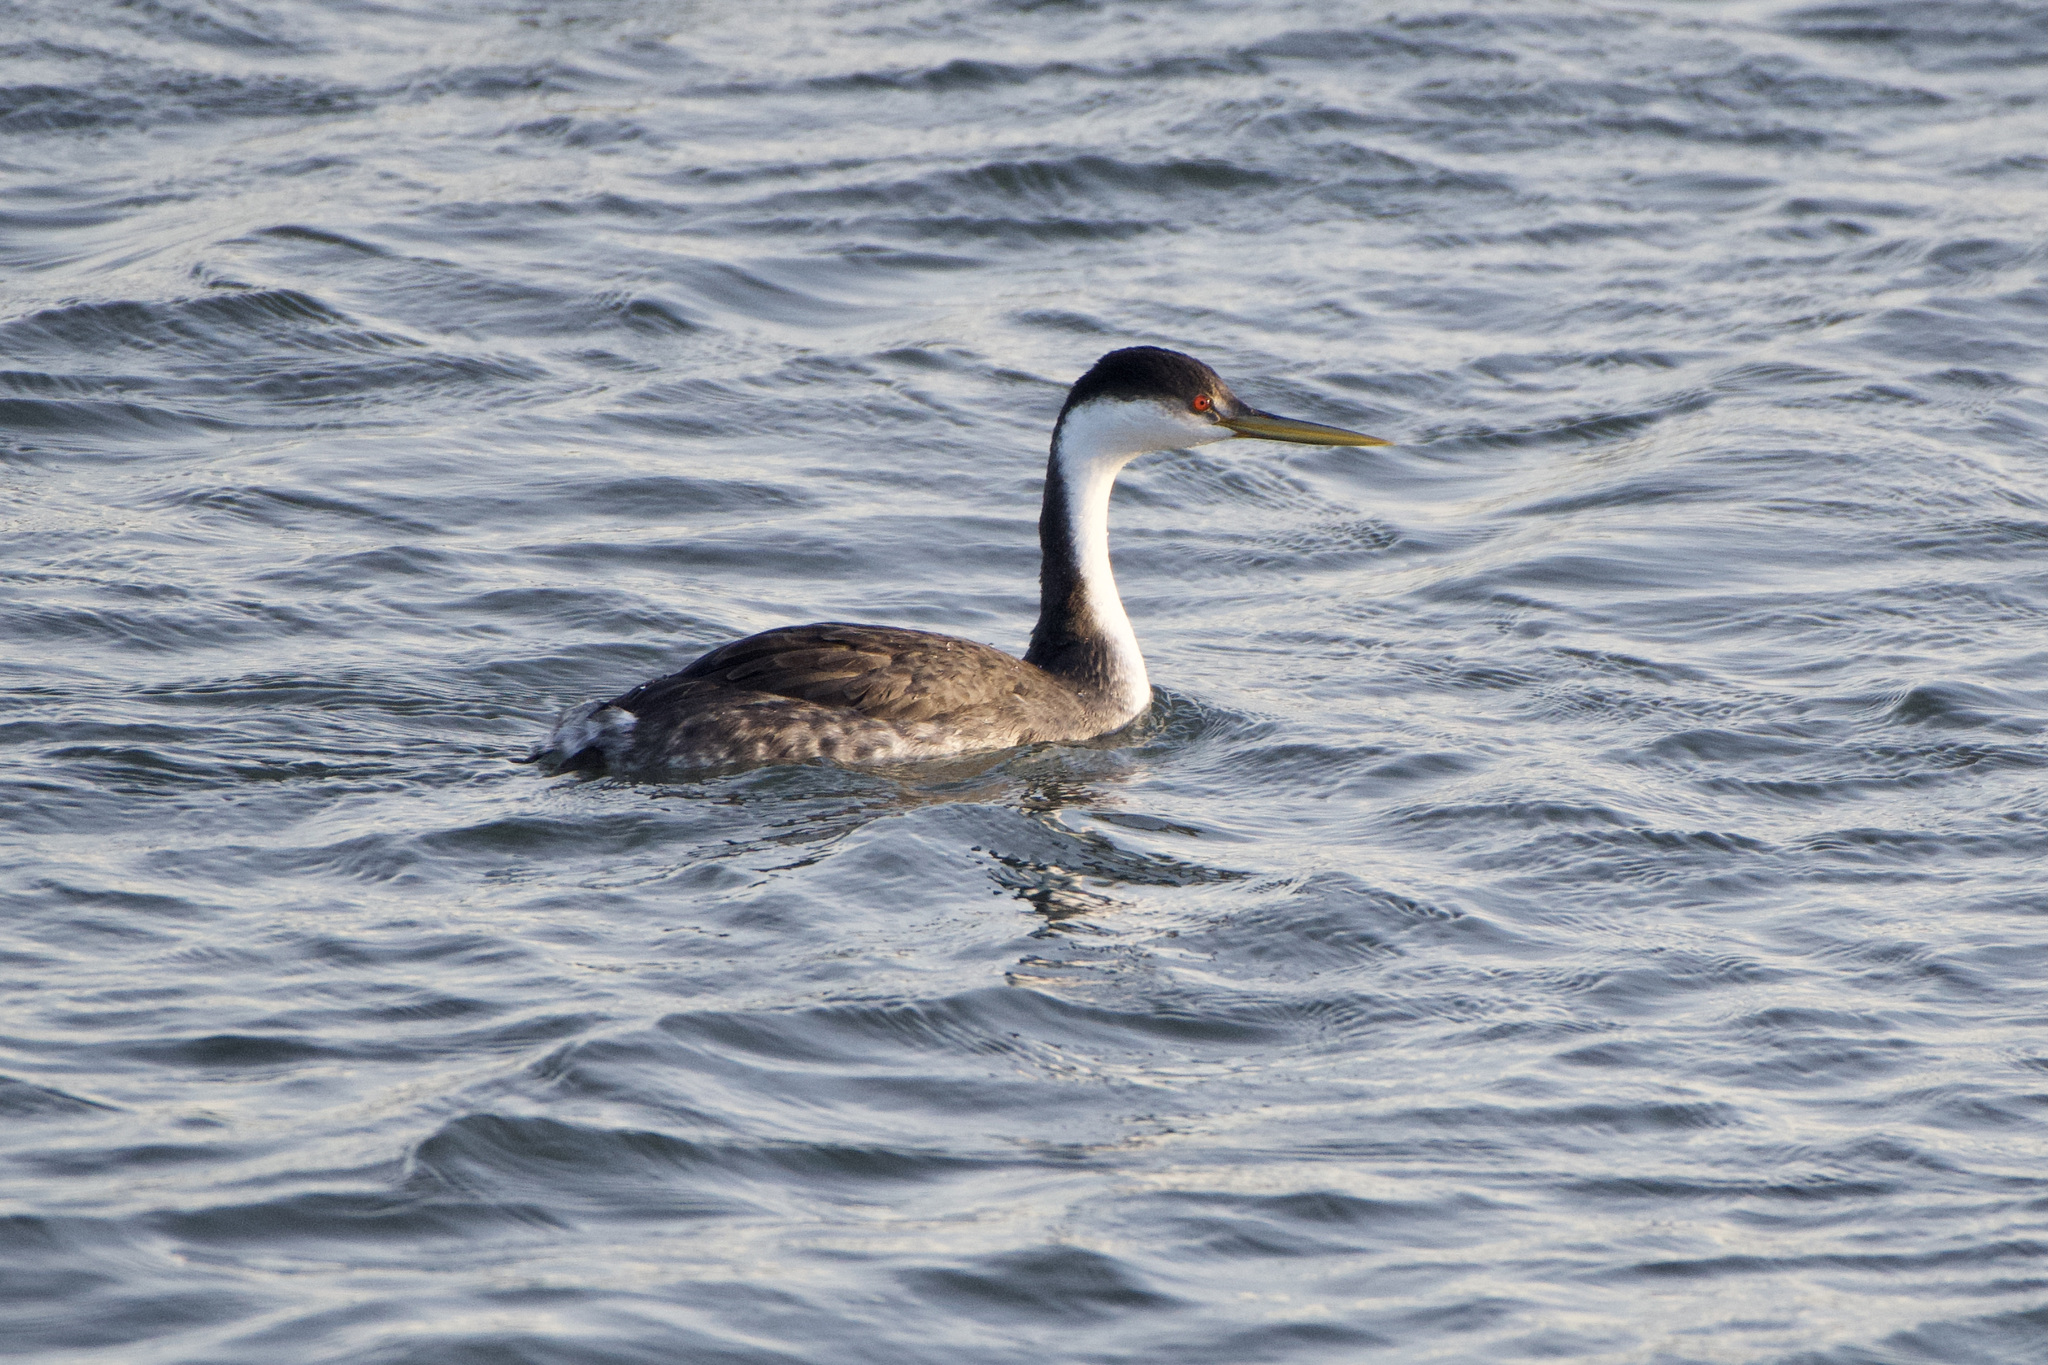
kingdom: Animalia
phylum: Chordata
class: Aves
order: Podicipediformes
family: Podicipedidae
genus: Aechmophorus
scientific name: Aechmophorus occidentalis
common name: Western grebe
